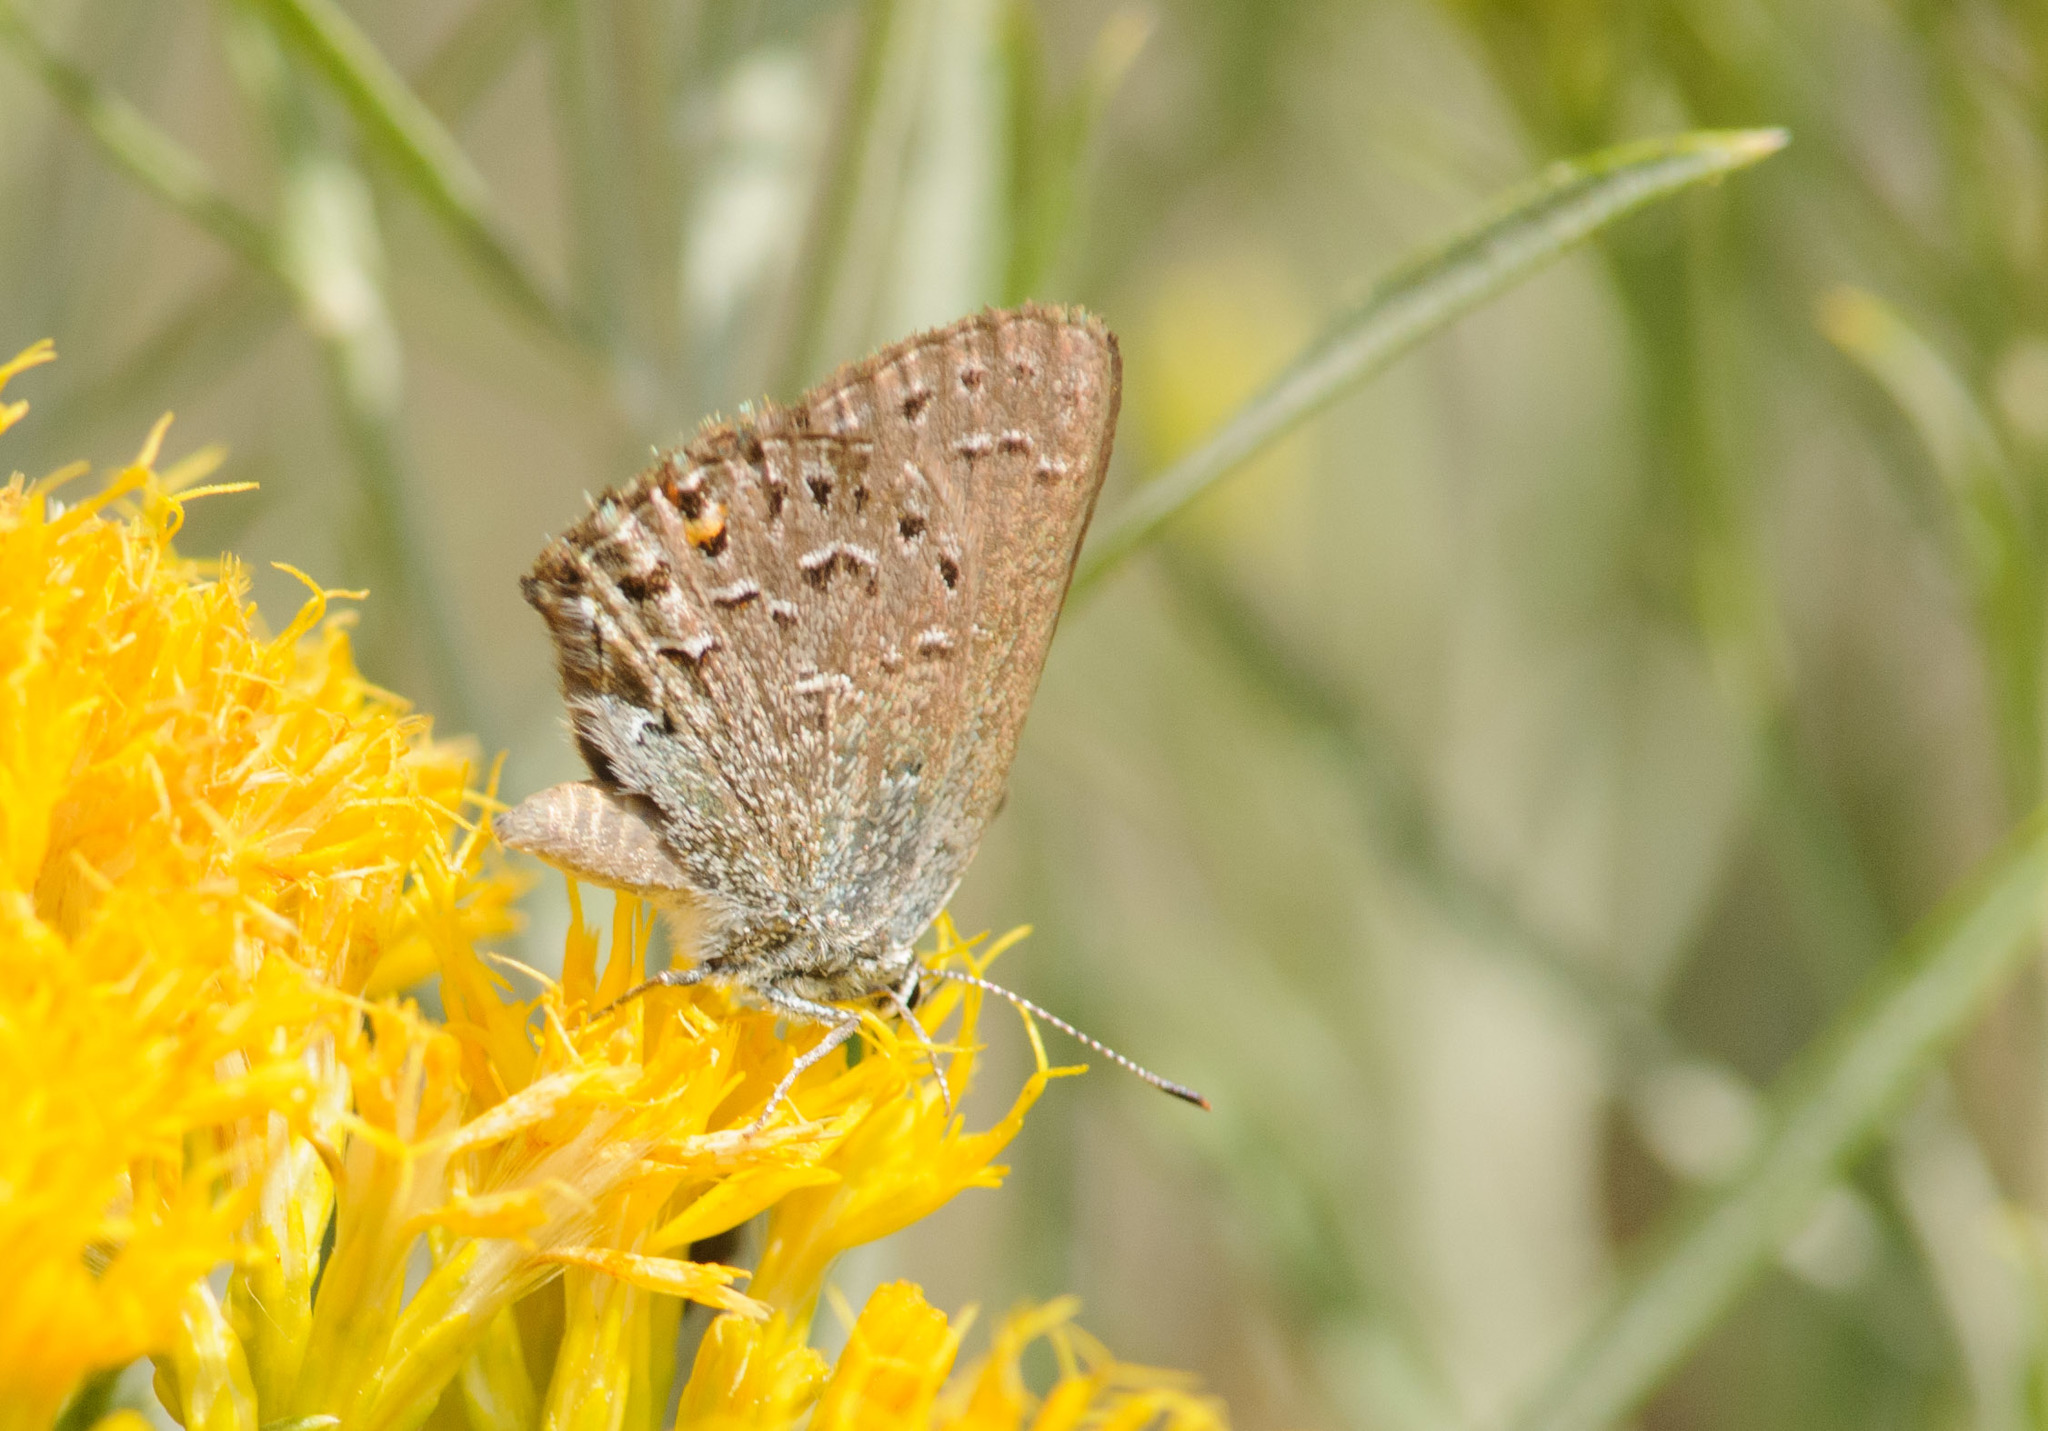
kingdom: Animalia
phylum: Arthropoda
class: Insecta
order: Lepidoptera
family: Lycaenidae
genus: Satyrium
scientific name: Satyrium behrii
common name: Behr's hairstreak
